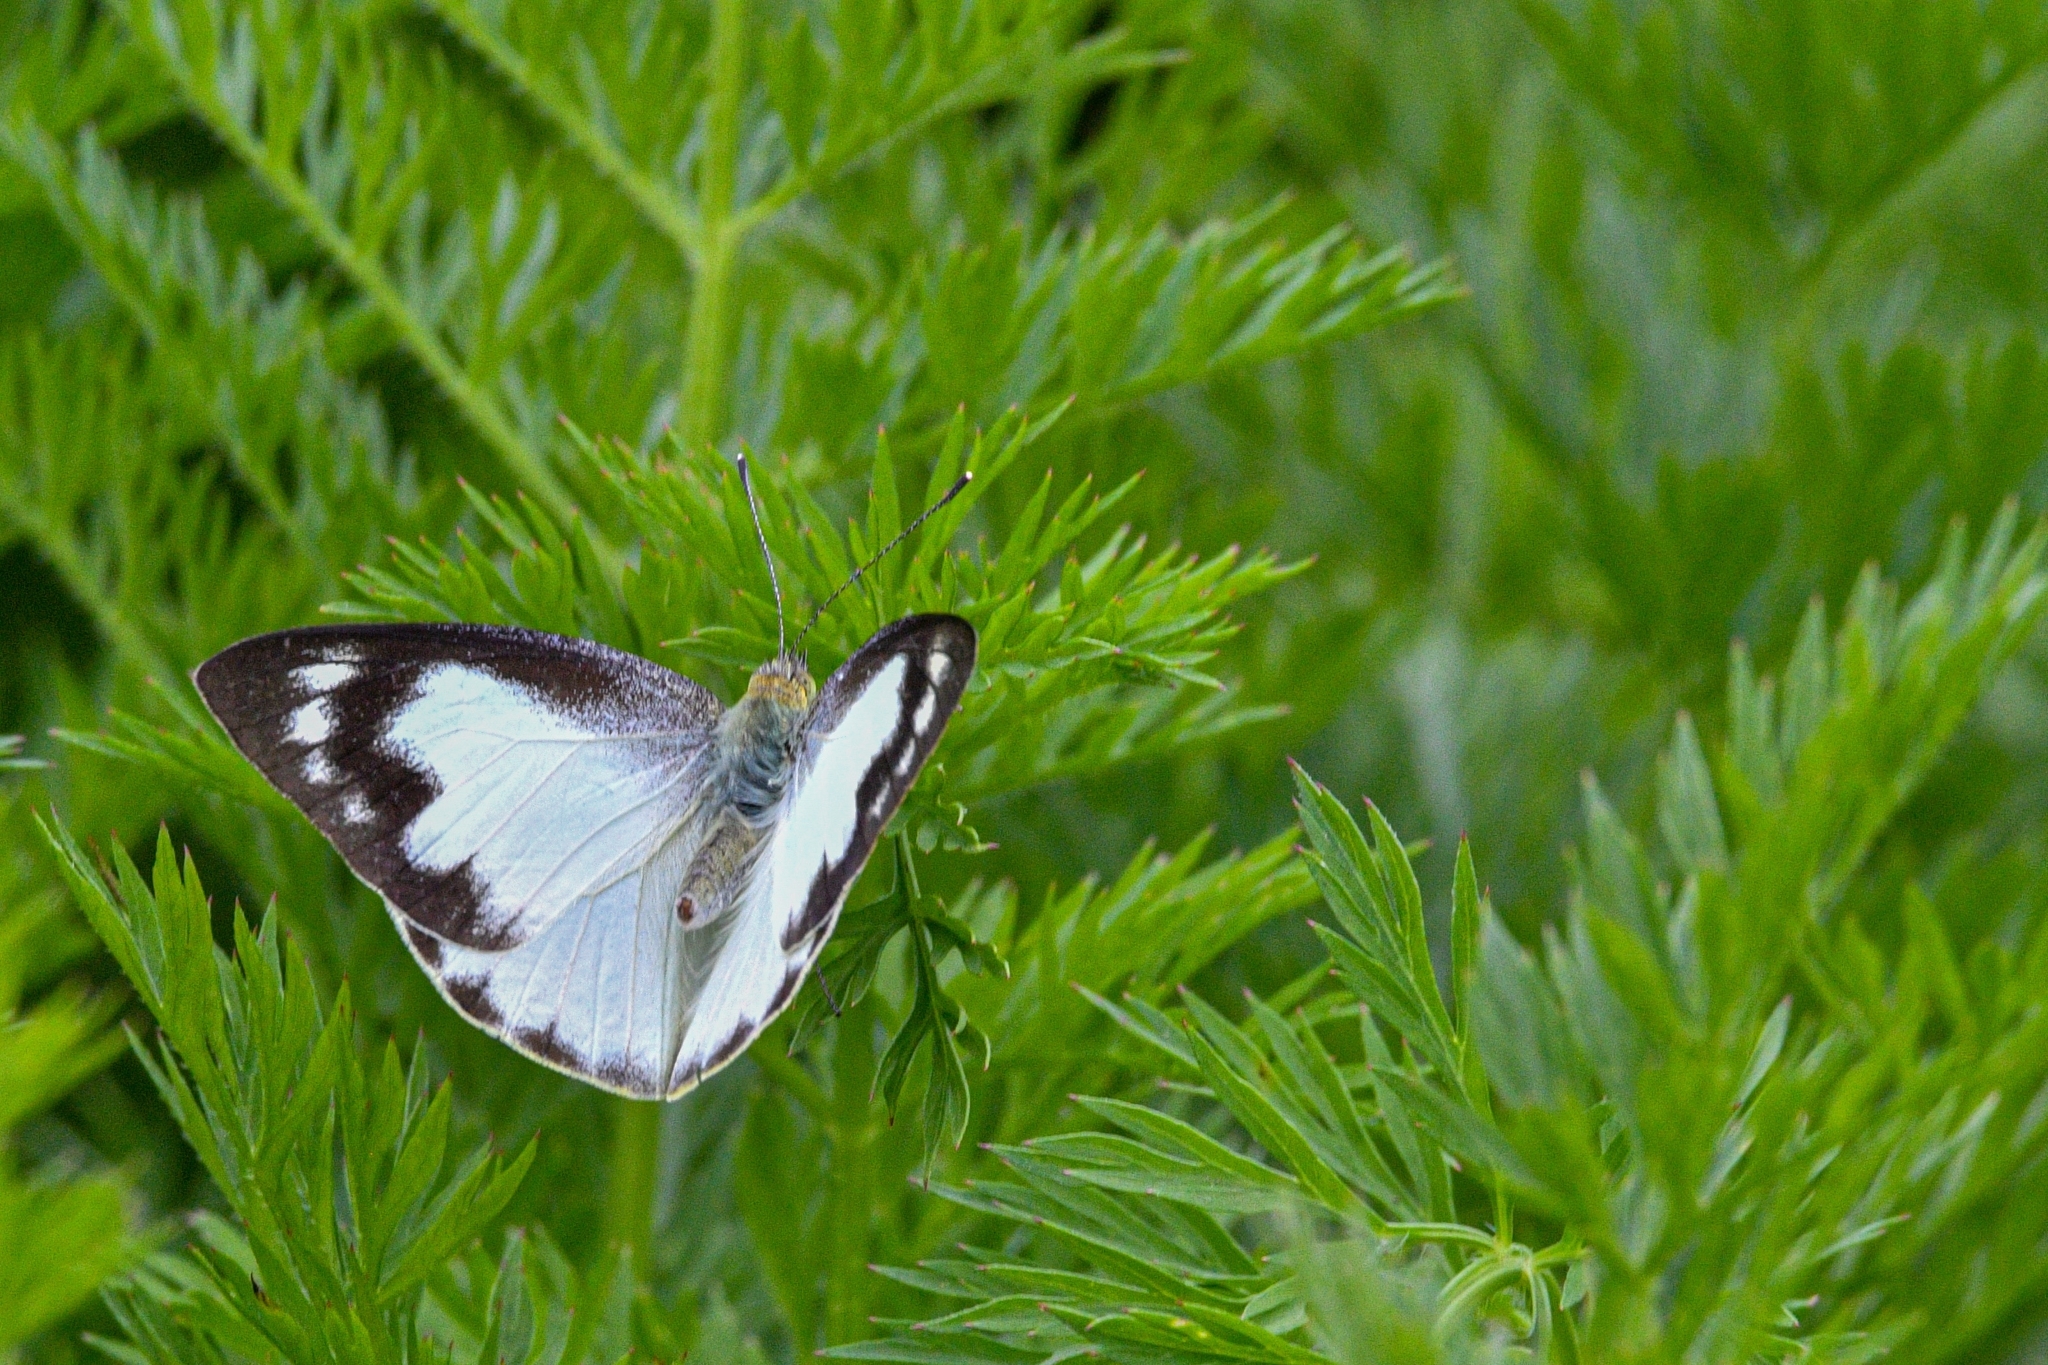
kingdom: Animalia
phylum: Arthropoda
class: Insecta
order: Lepidoptera
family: Pieridae
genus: Appias
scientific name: Appias albina
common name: Common albatross
